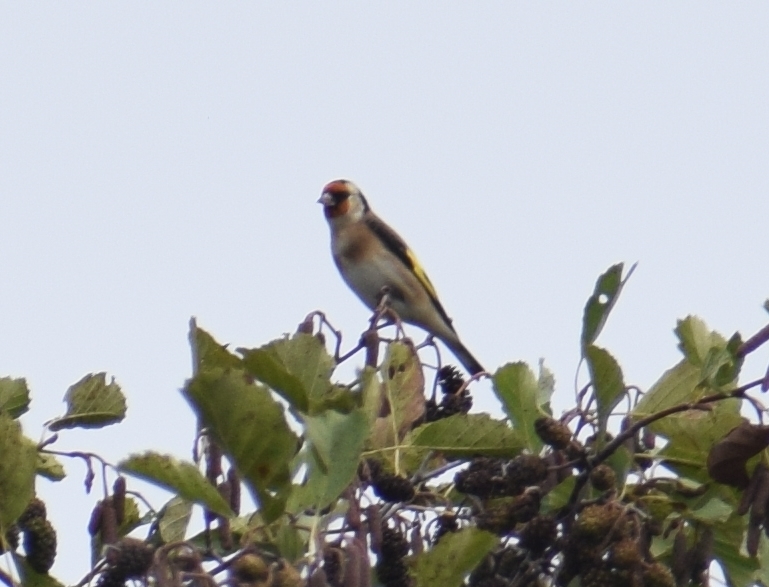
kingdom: Animalia
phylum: Chordata
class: Aves
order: Passeriformes
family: Fringillidae
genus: Carduelis
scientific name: Carduelis carduelis
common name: European goldfinch
